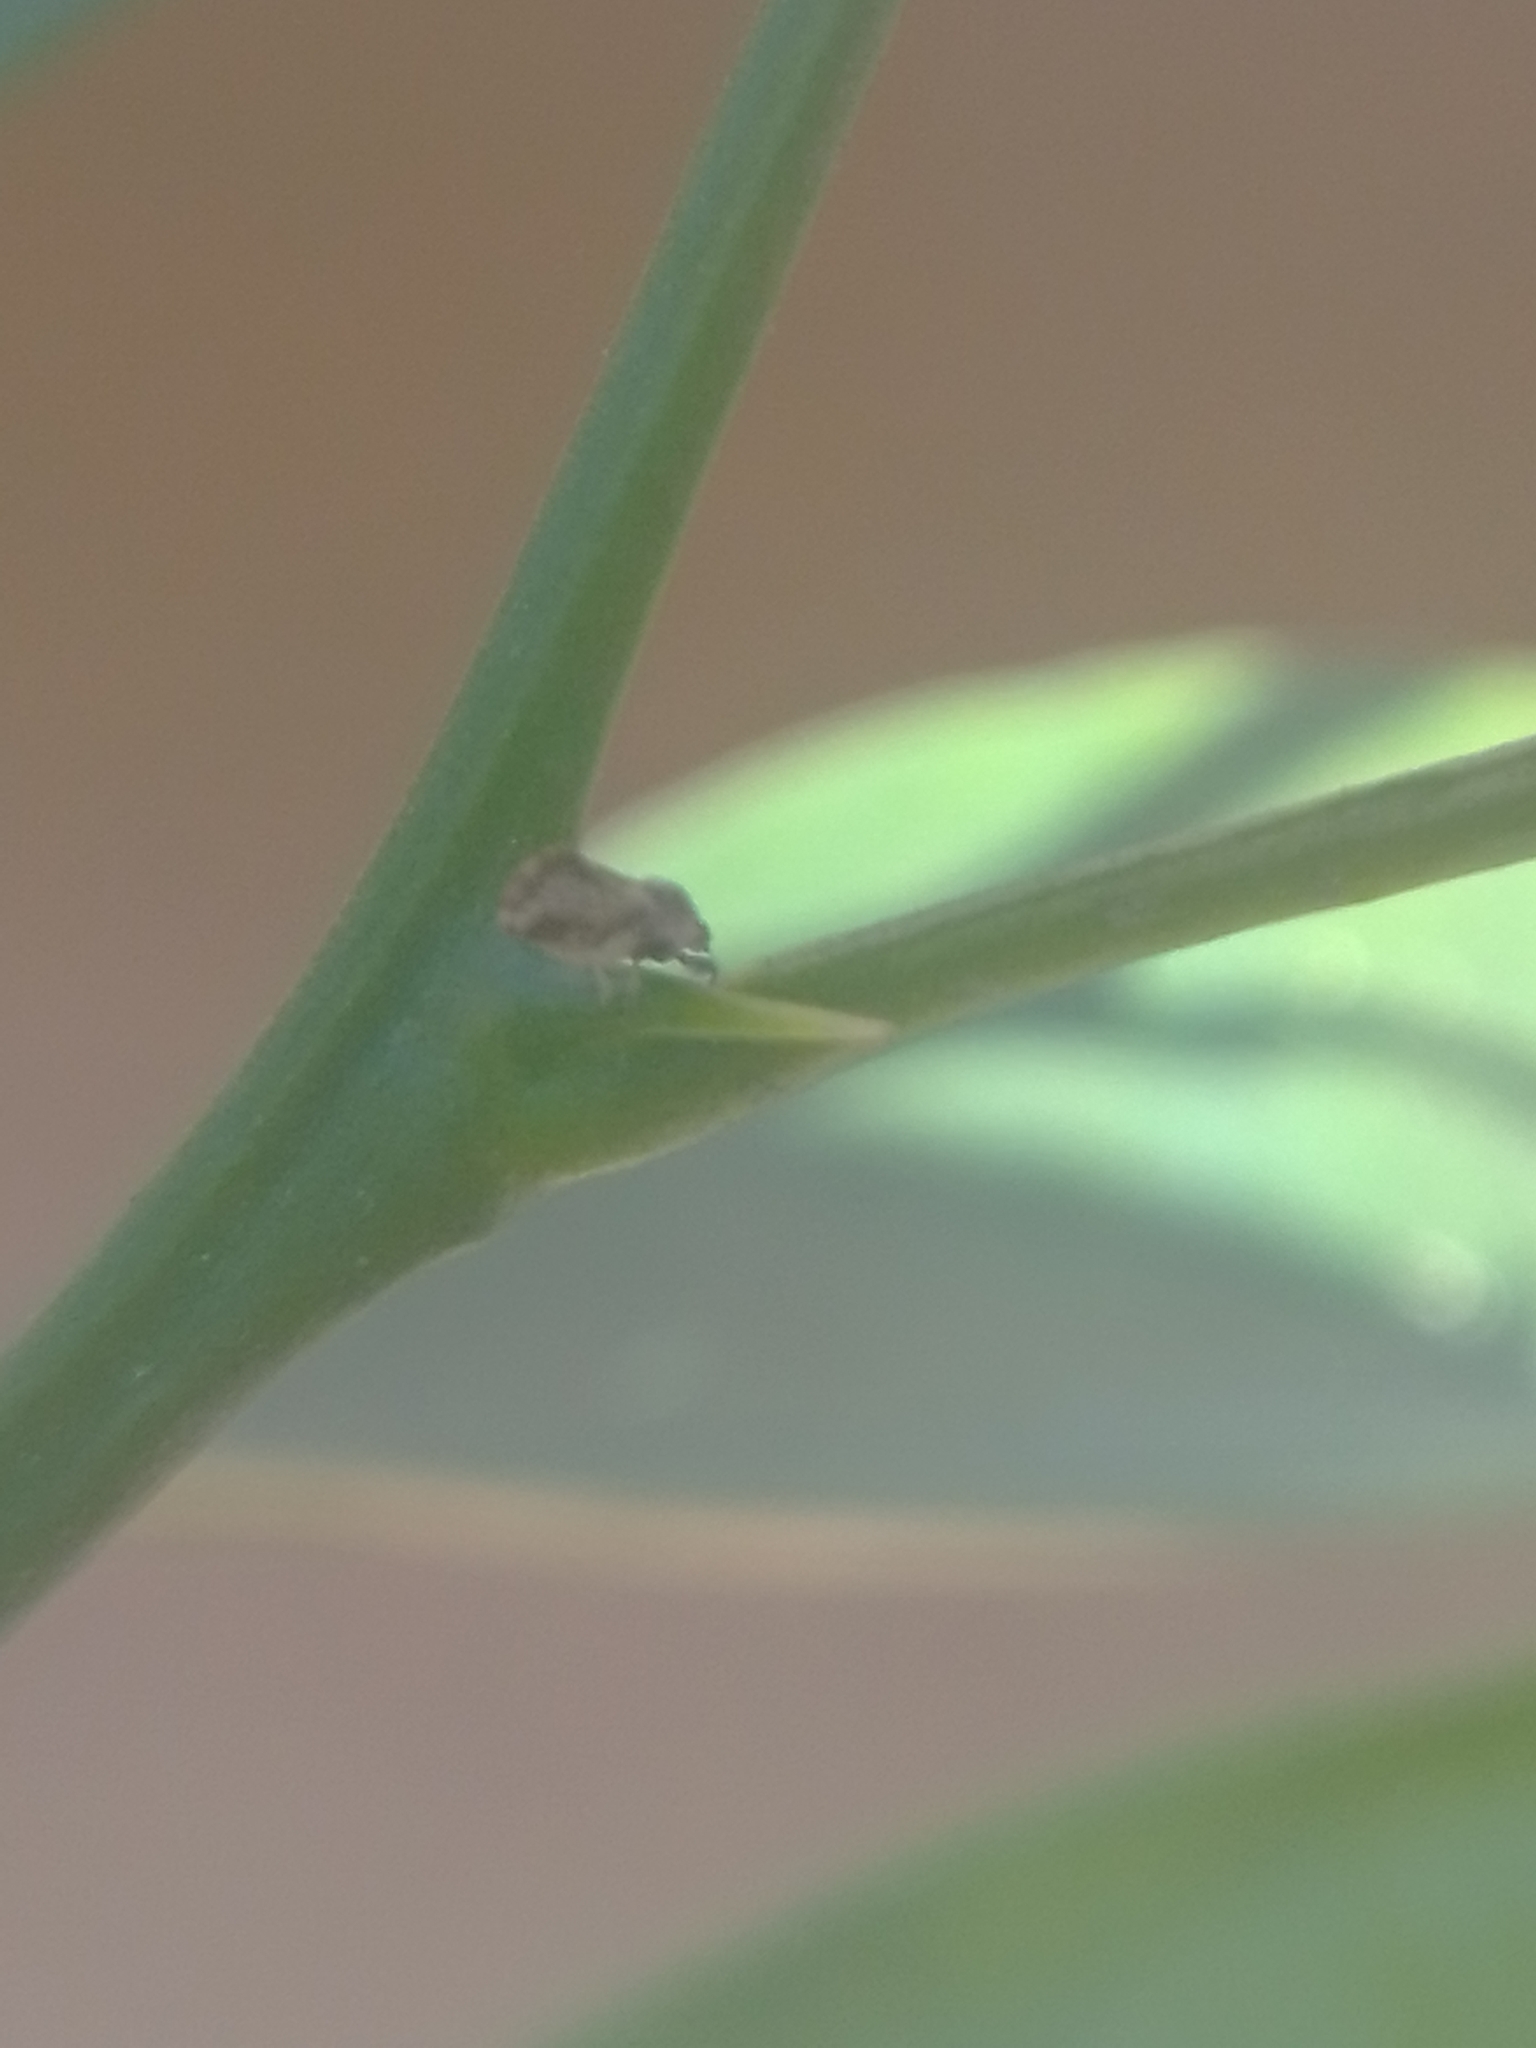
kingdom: Animalia
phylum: Arthropoda
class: Insecta
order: Hemiptera
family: Liviidae
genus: Diaphorina
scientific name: Diaphorina citri
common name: Asian citrus psyllid
